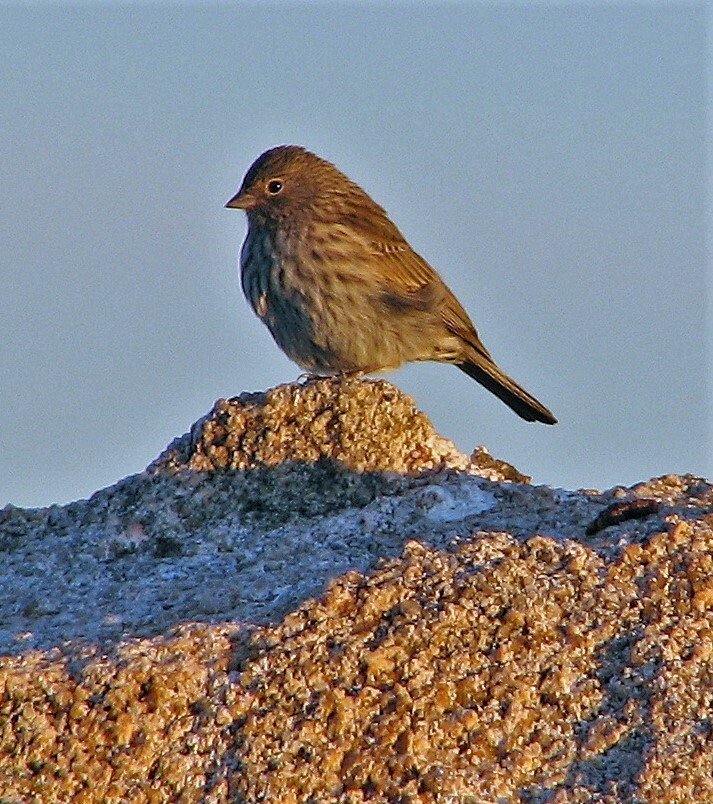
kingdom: Animalia
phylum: Chordata
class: Aves
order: Passeriformes
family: Thraupidae
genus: Geospizopsis
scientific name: Geospizopsis unicolor
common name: Plumbeous sierra-finch
